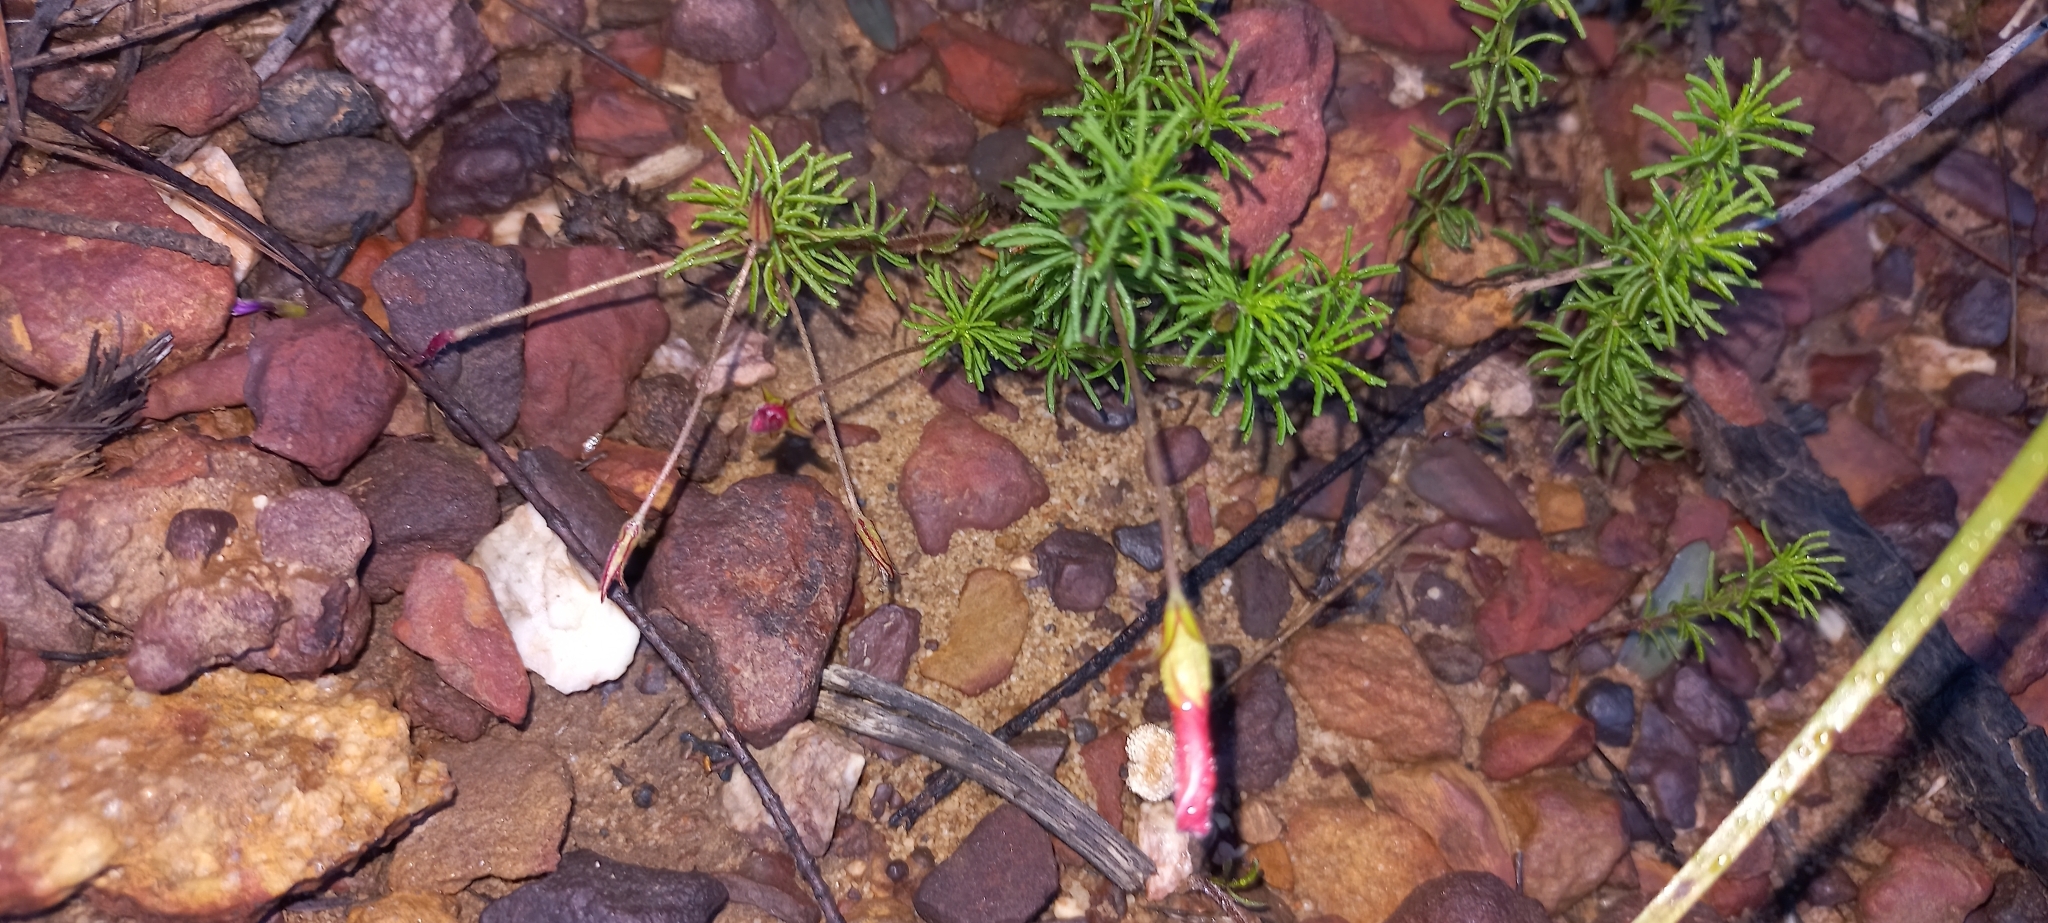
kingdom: Plantae
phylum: Tracheophyta
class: Magnoliopsida
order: Oxalidales
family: Oxalidaceae
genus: Oxalis
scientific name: Oxalis tenuifolia
